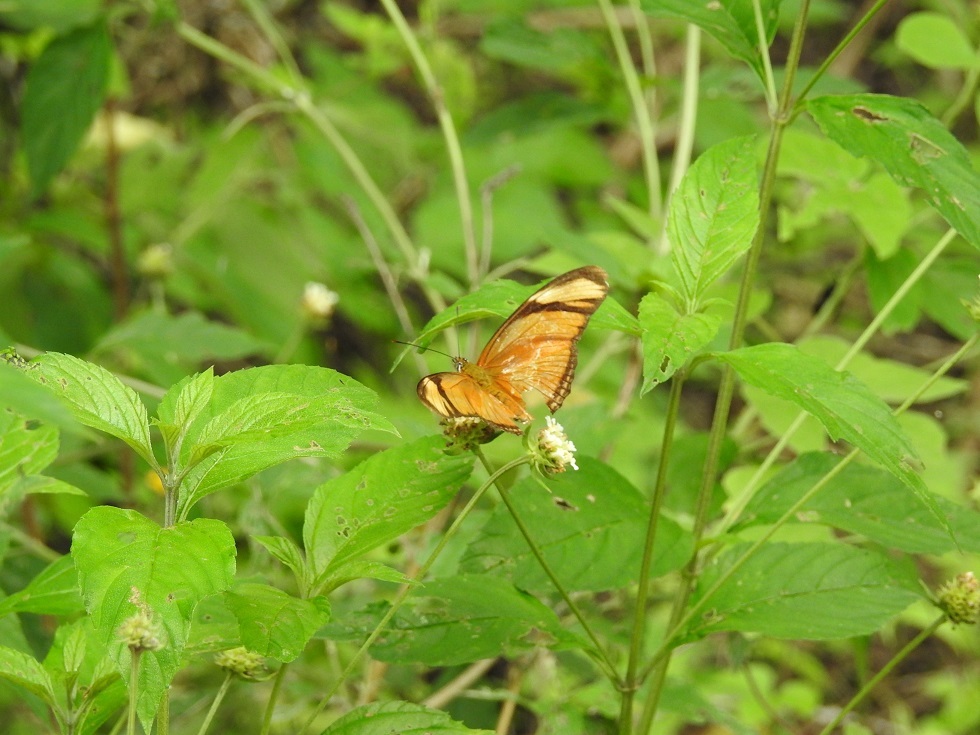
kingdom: Animalia
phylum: Arthropoda
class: Insecta
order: Lepidoptera
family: Nymphalidae
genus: Dryas
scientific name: Dryas iulia
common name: Flambeau
